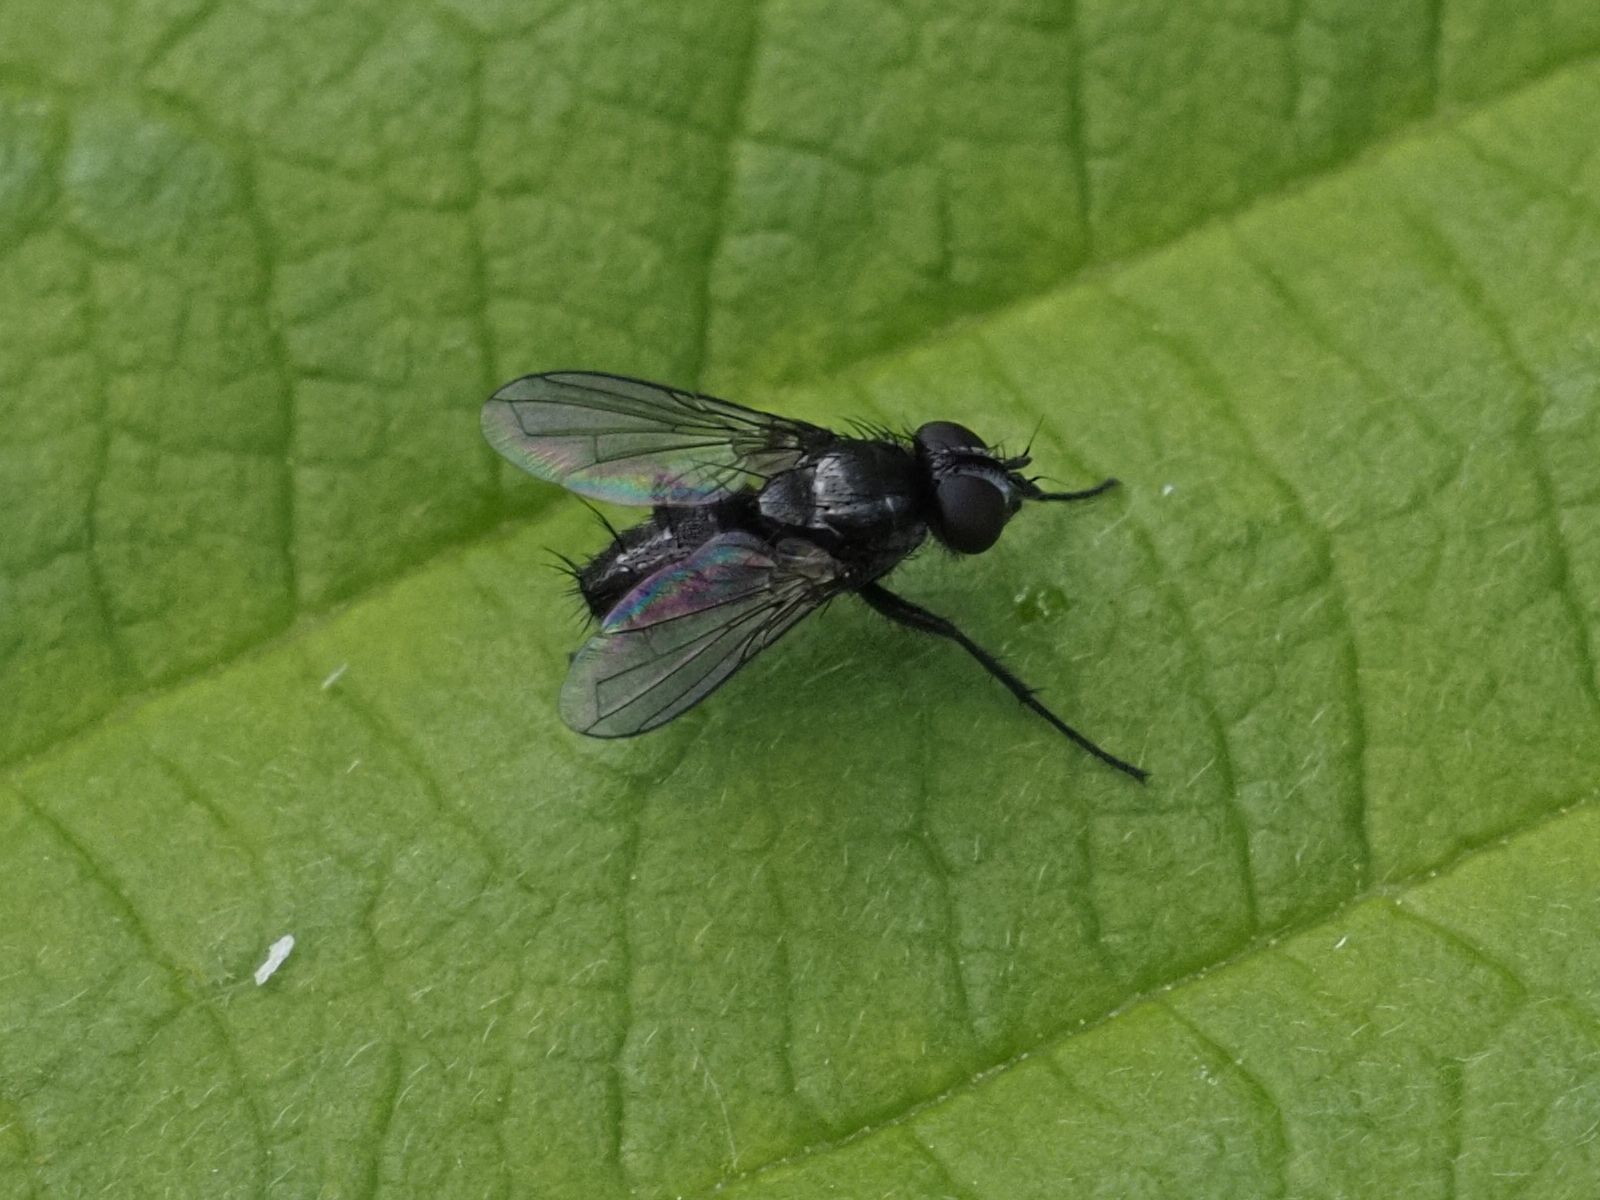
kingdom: Animalia
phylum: Arthropoda
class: Insecta
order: Diptera
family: Calliphoridae
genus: Rhinophora
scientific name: Rhinophora lepida
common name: Pouting woodlouse-fly
